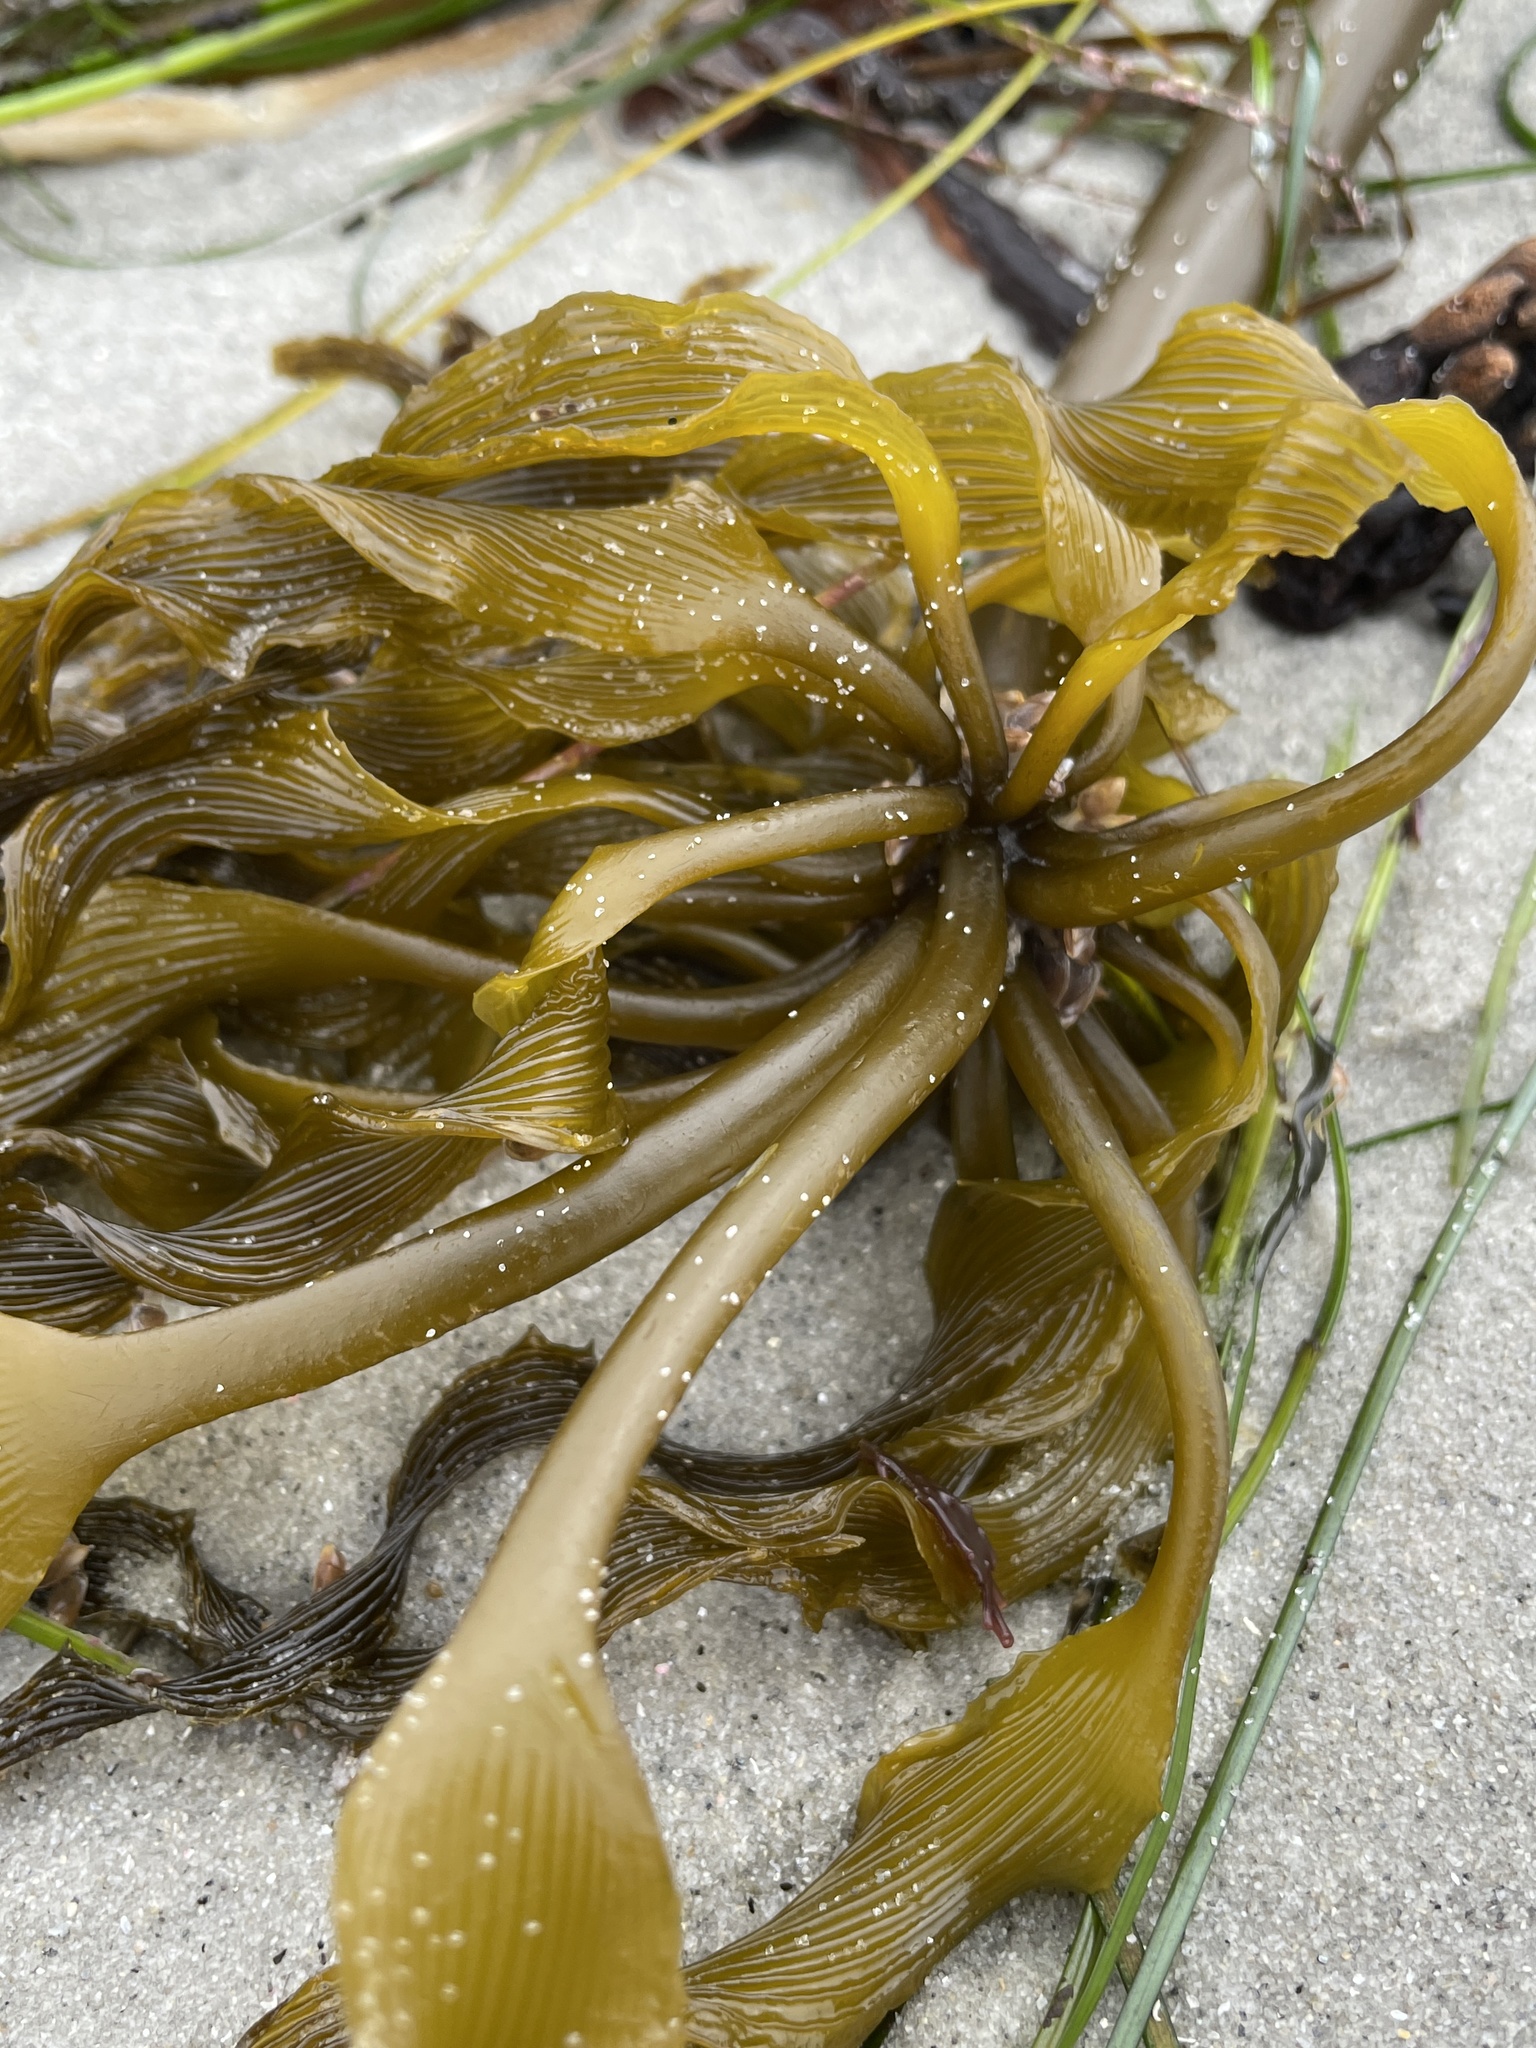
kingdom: Chromista
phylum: Ochrophyta
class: Phaeophyceae
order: Laminariales
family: Laminariaceae
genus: Postelsia
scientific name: Postelsia palmiformis
